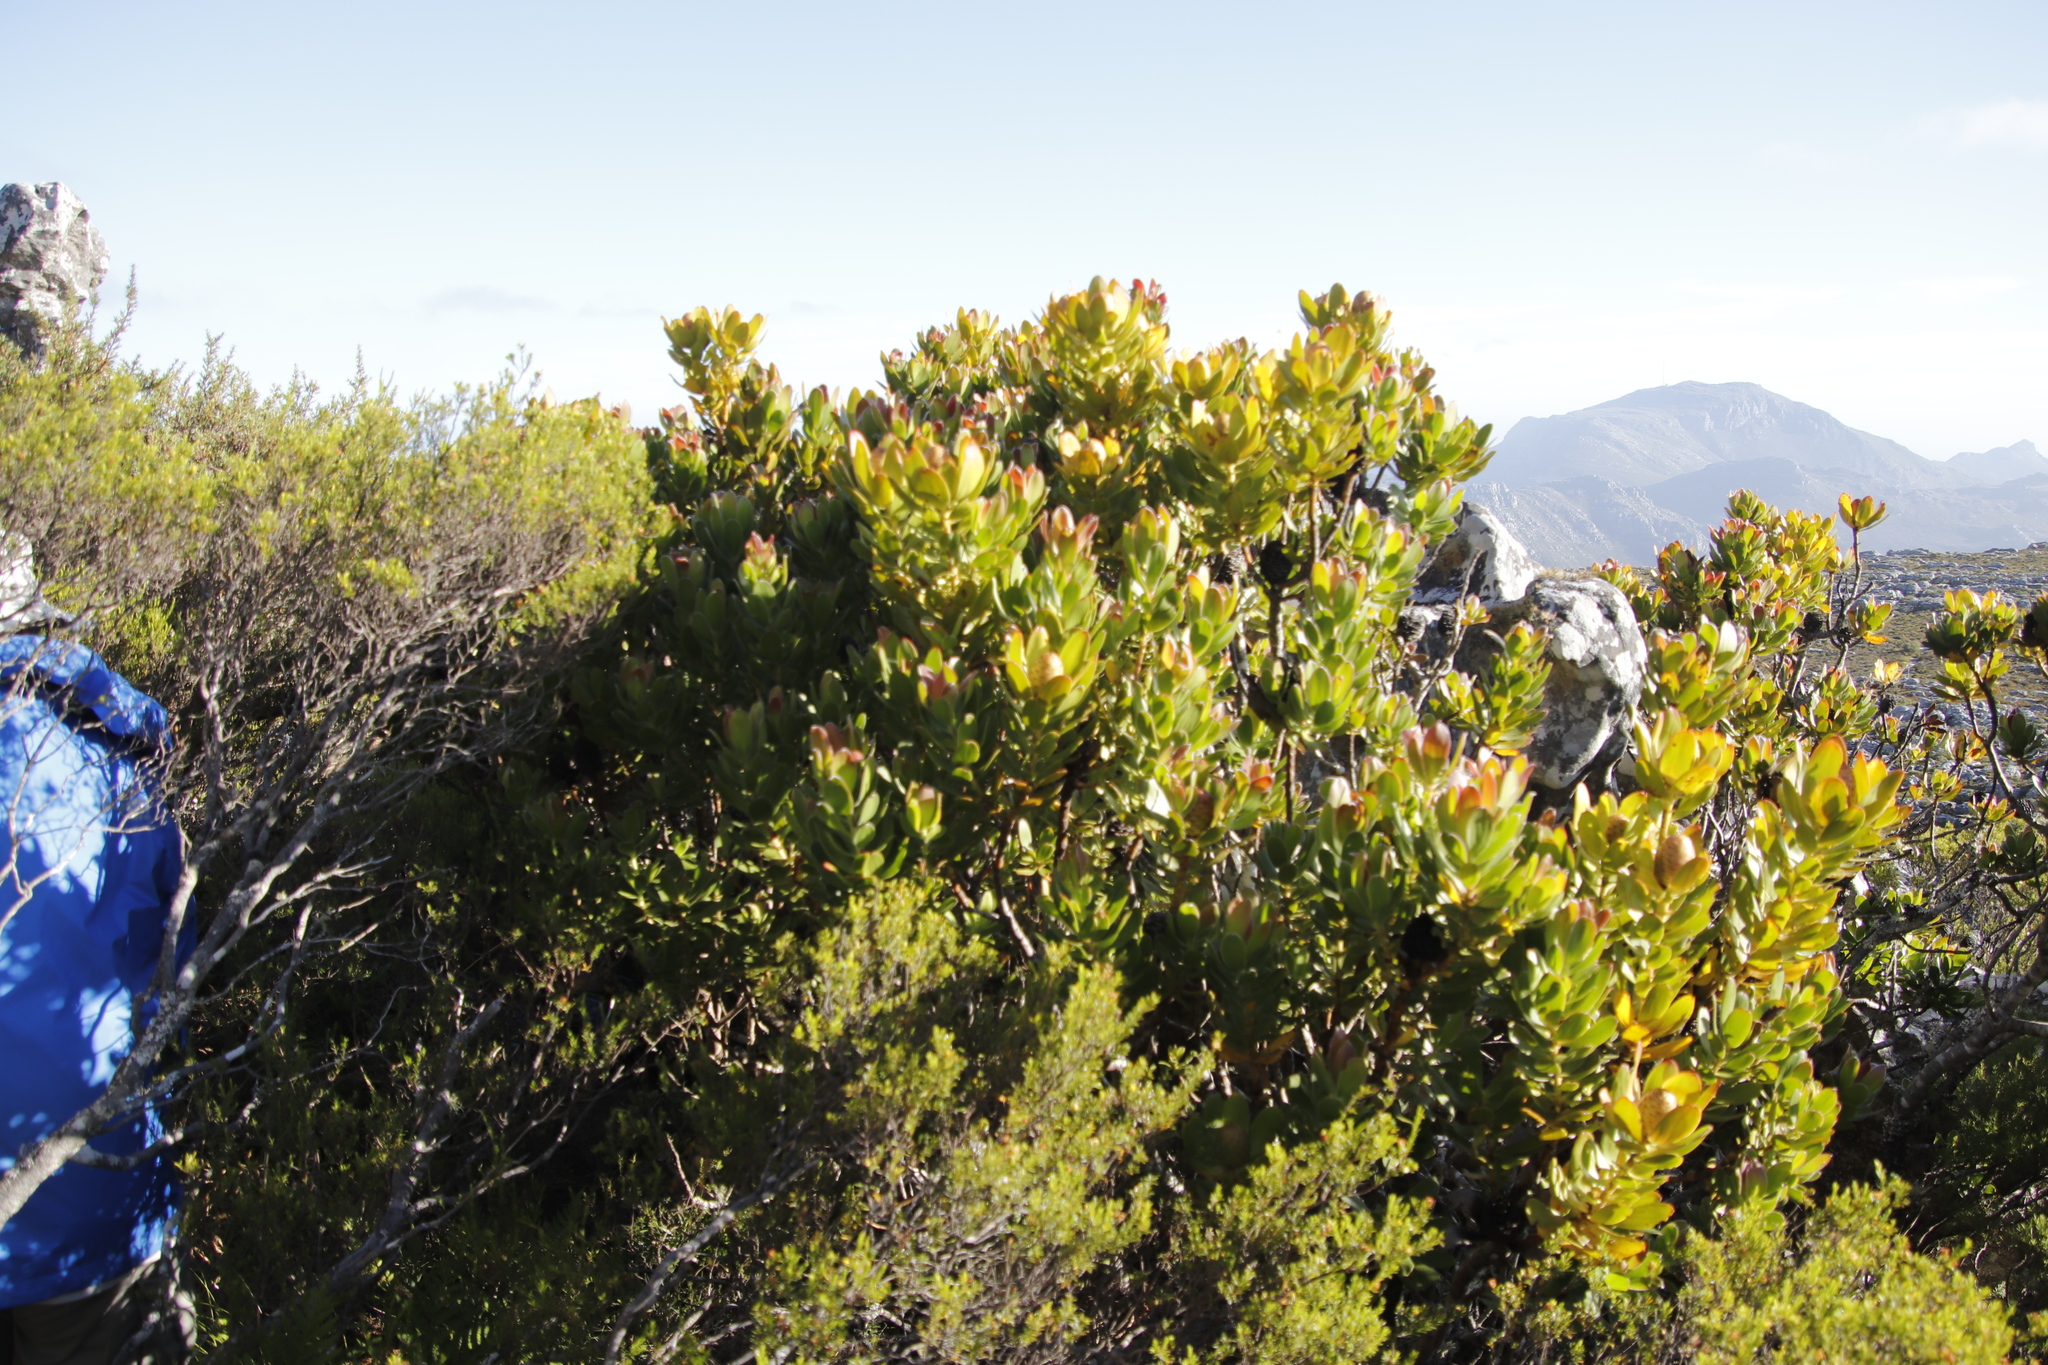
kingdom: Plantae
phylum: Tracheophyta
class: Magnoliopsida
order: Proteales
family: Proteaceae
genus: Leucadendron
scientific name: Leucadendron strobilinum
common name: Mountain rose
